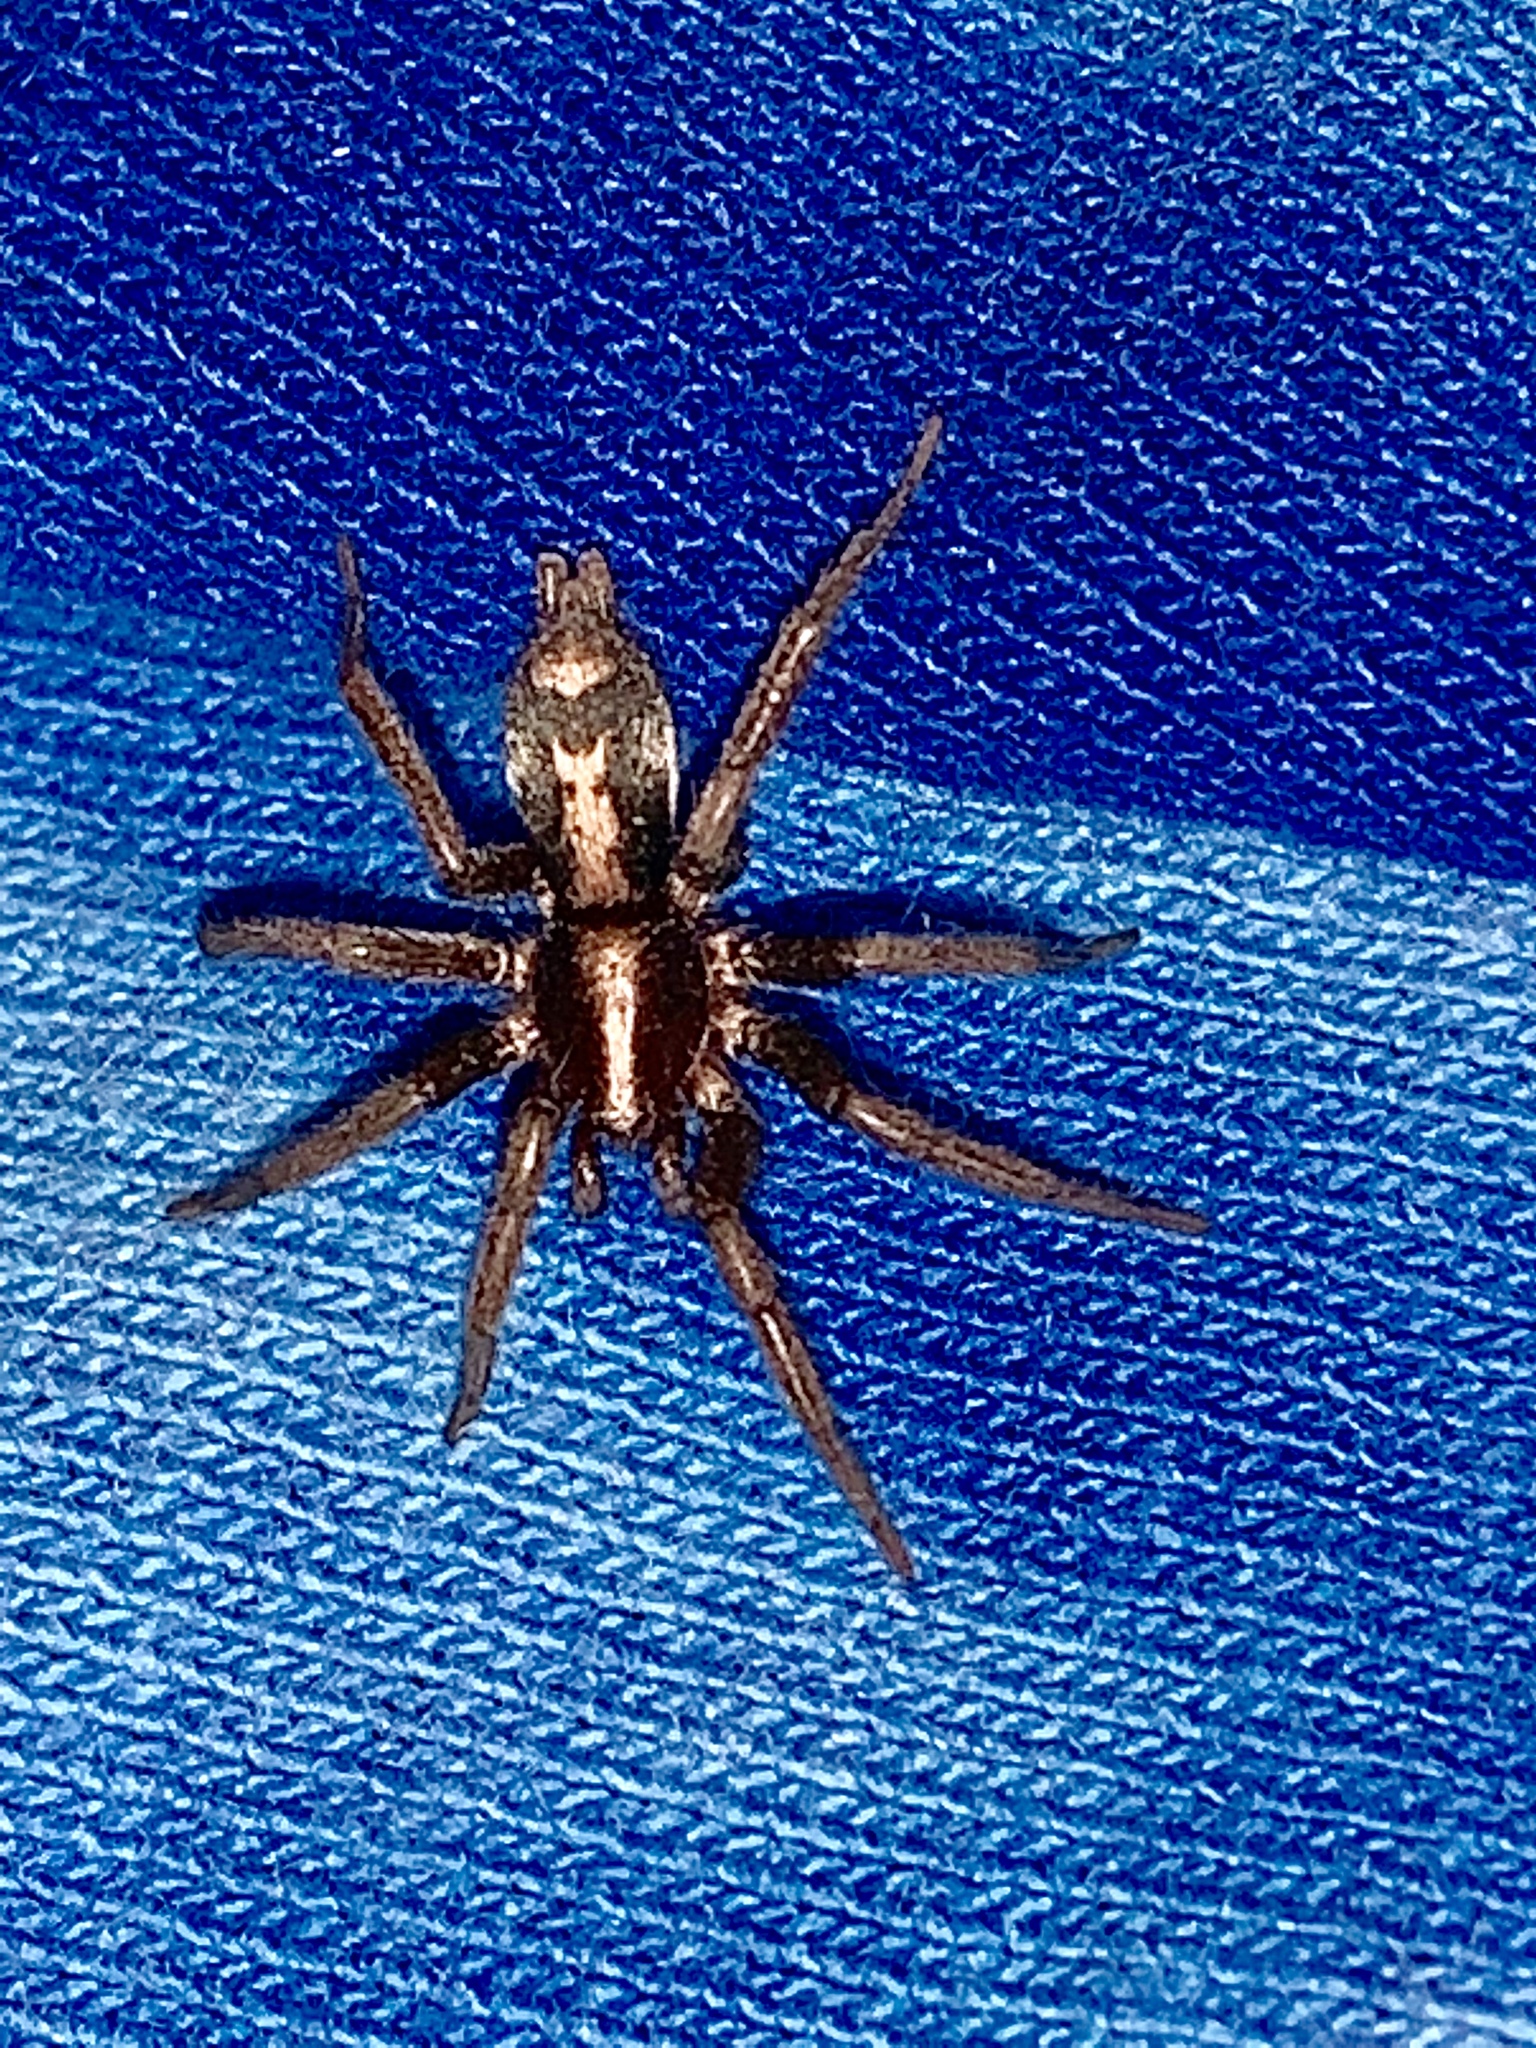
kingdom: Animalia
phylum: Arthropoda
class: Arachnida
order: Araneae
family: Gnaphosidae
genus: Herpyllus
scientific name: Herpyllus propinquus
